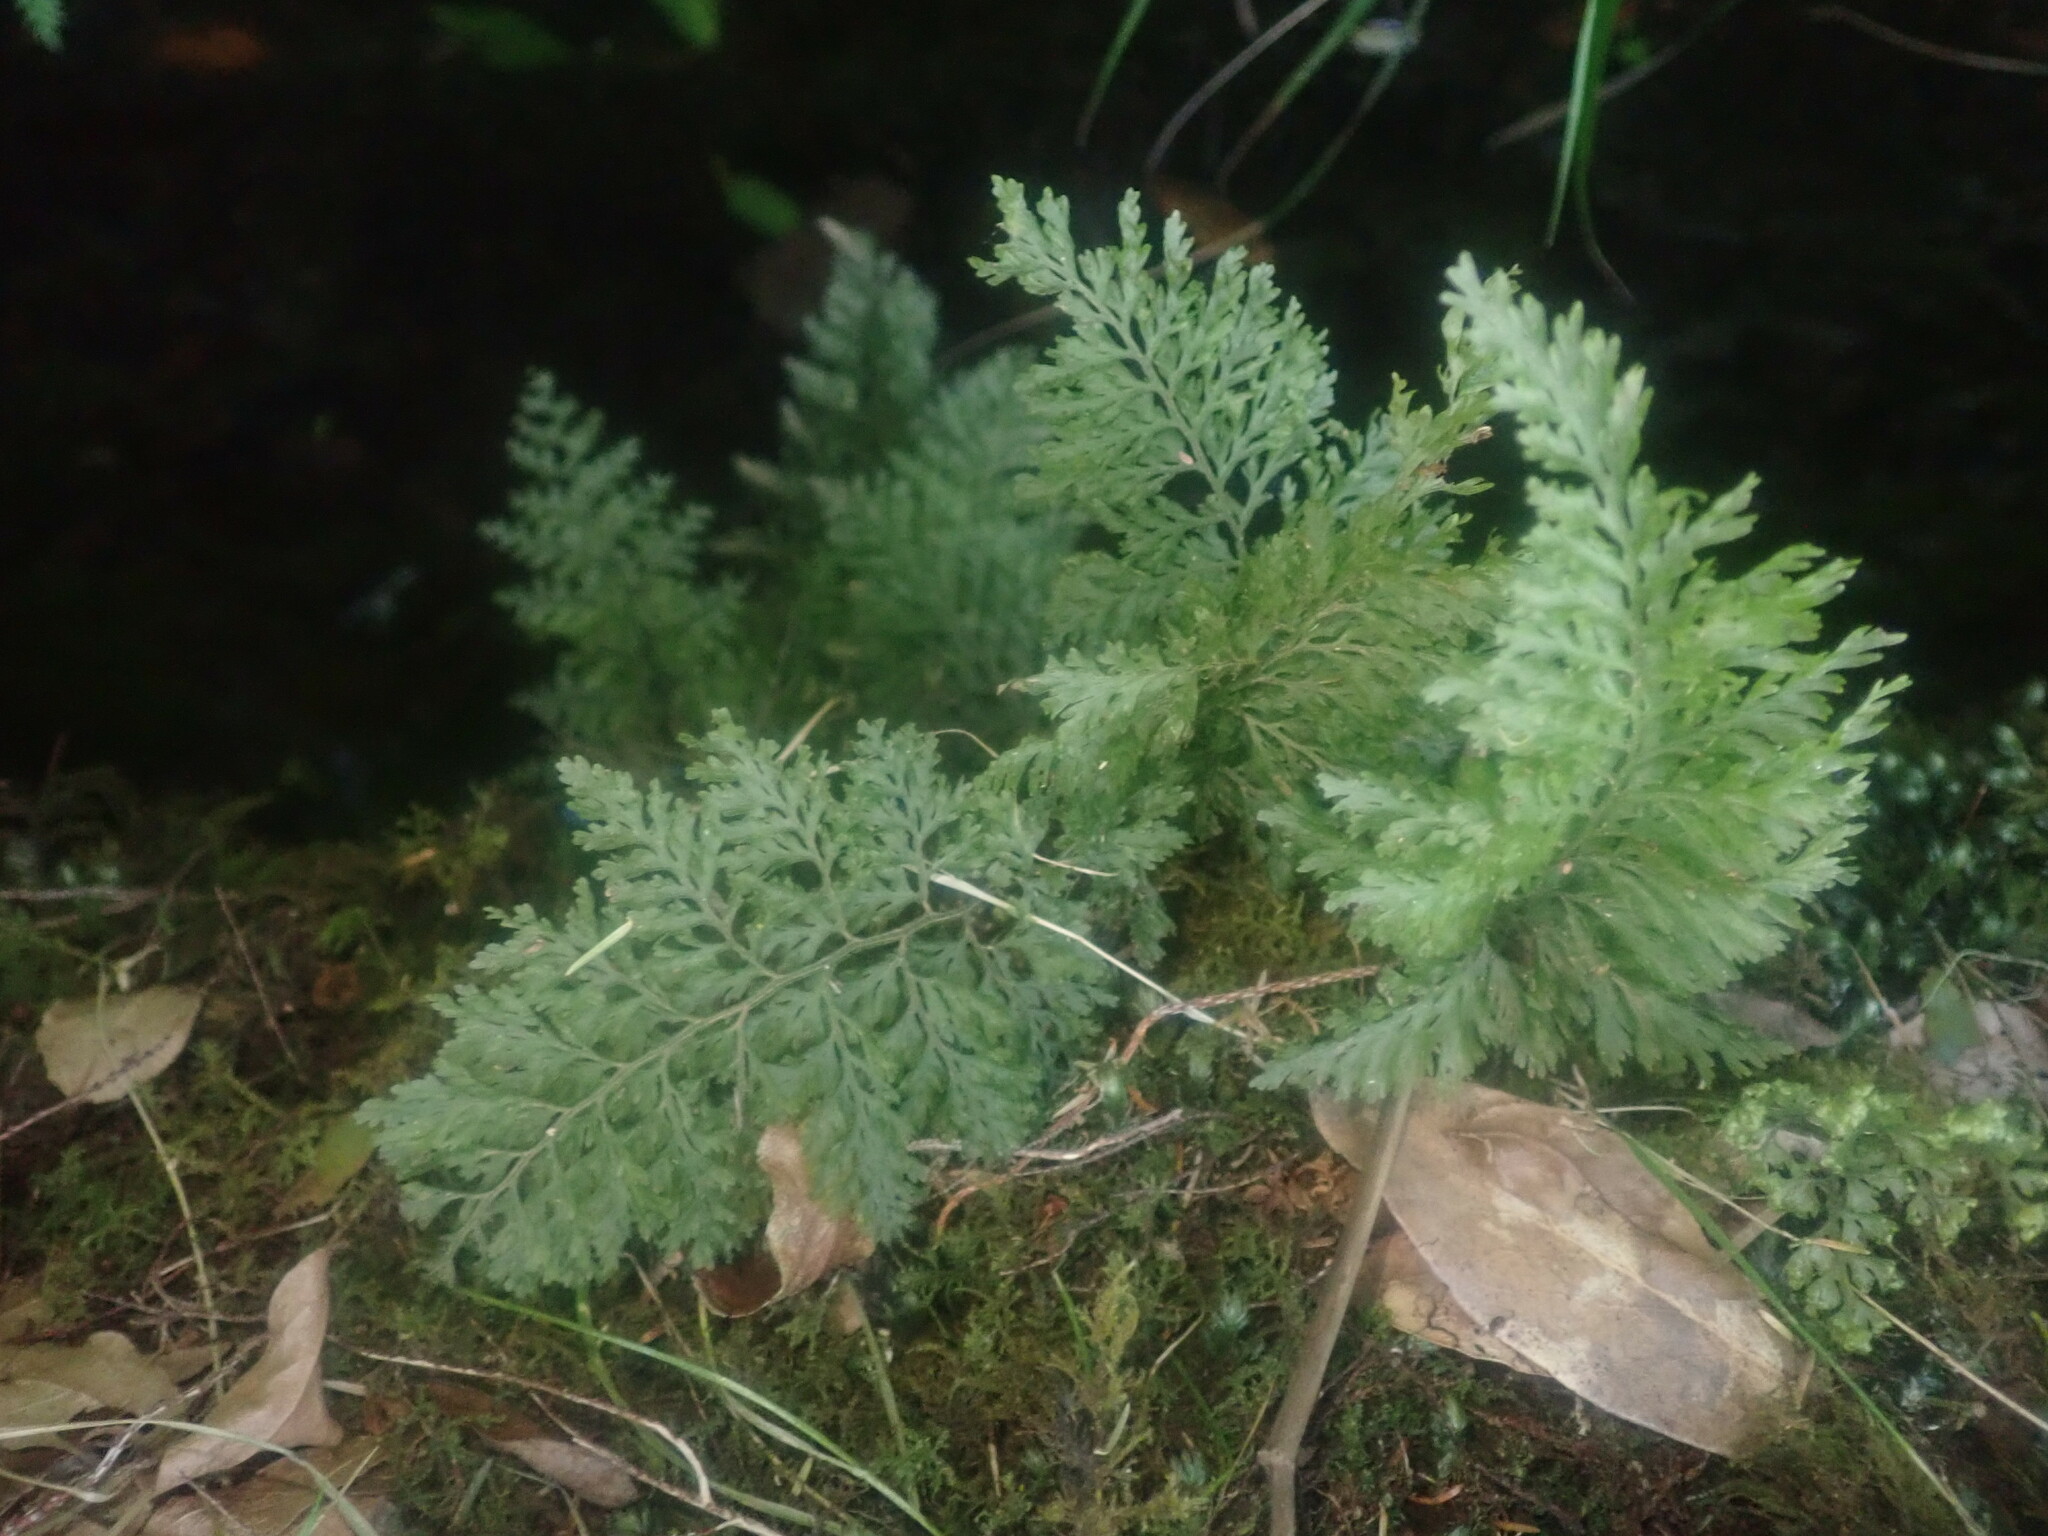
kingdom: Plantae
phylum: Tracheophyta
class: Polypodiopsida
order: Hymenophyllales
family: Hymenophyllaceae
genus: Vandenboschia
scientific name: Vandenboschia speciosa
